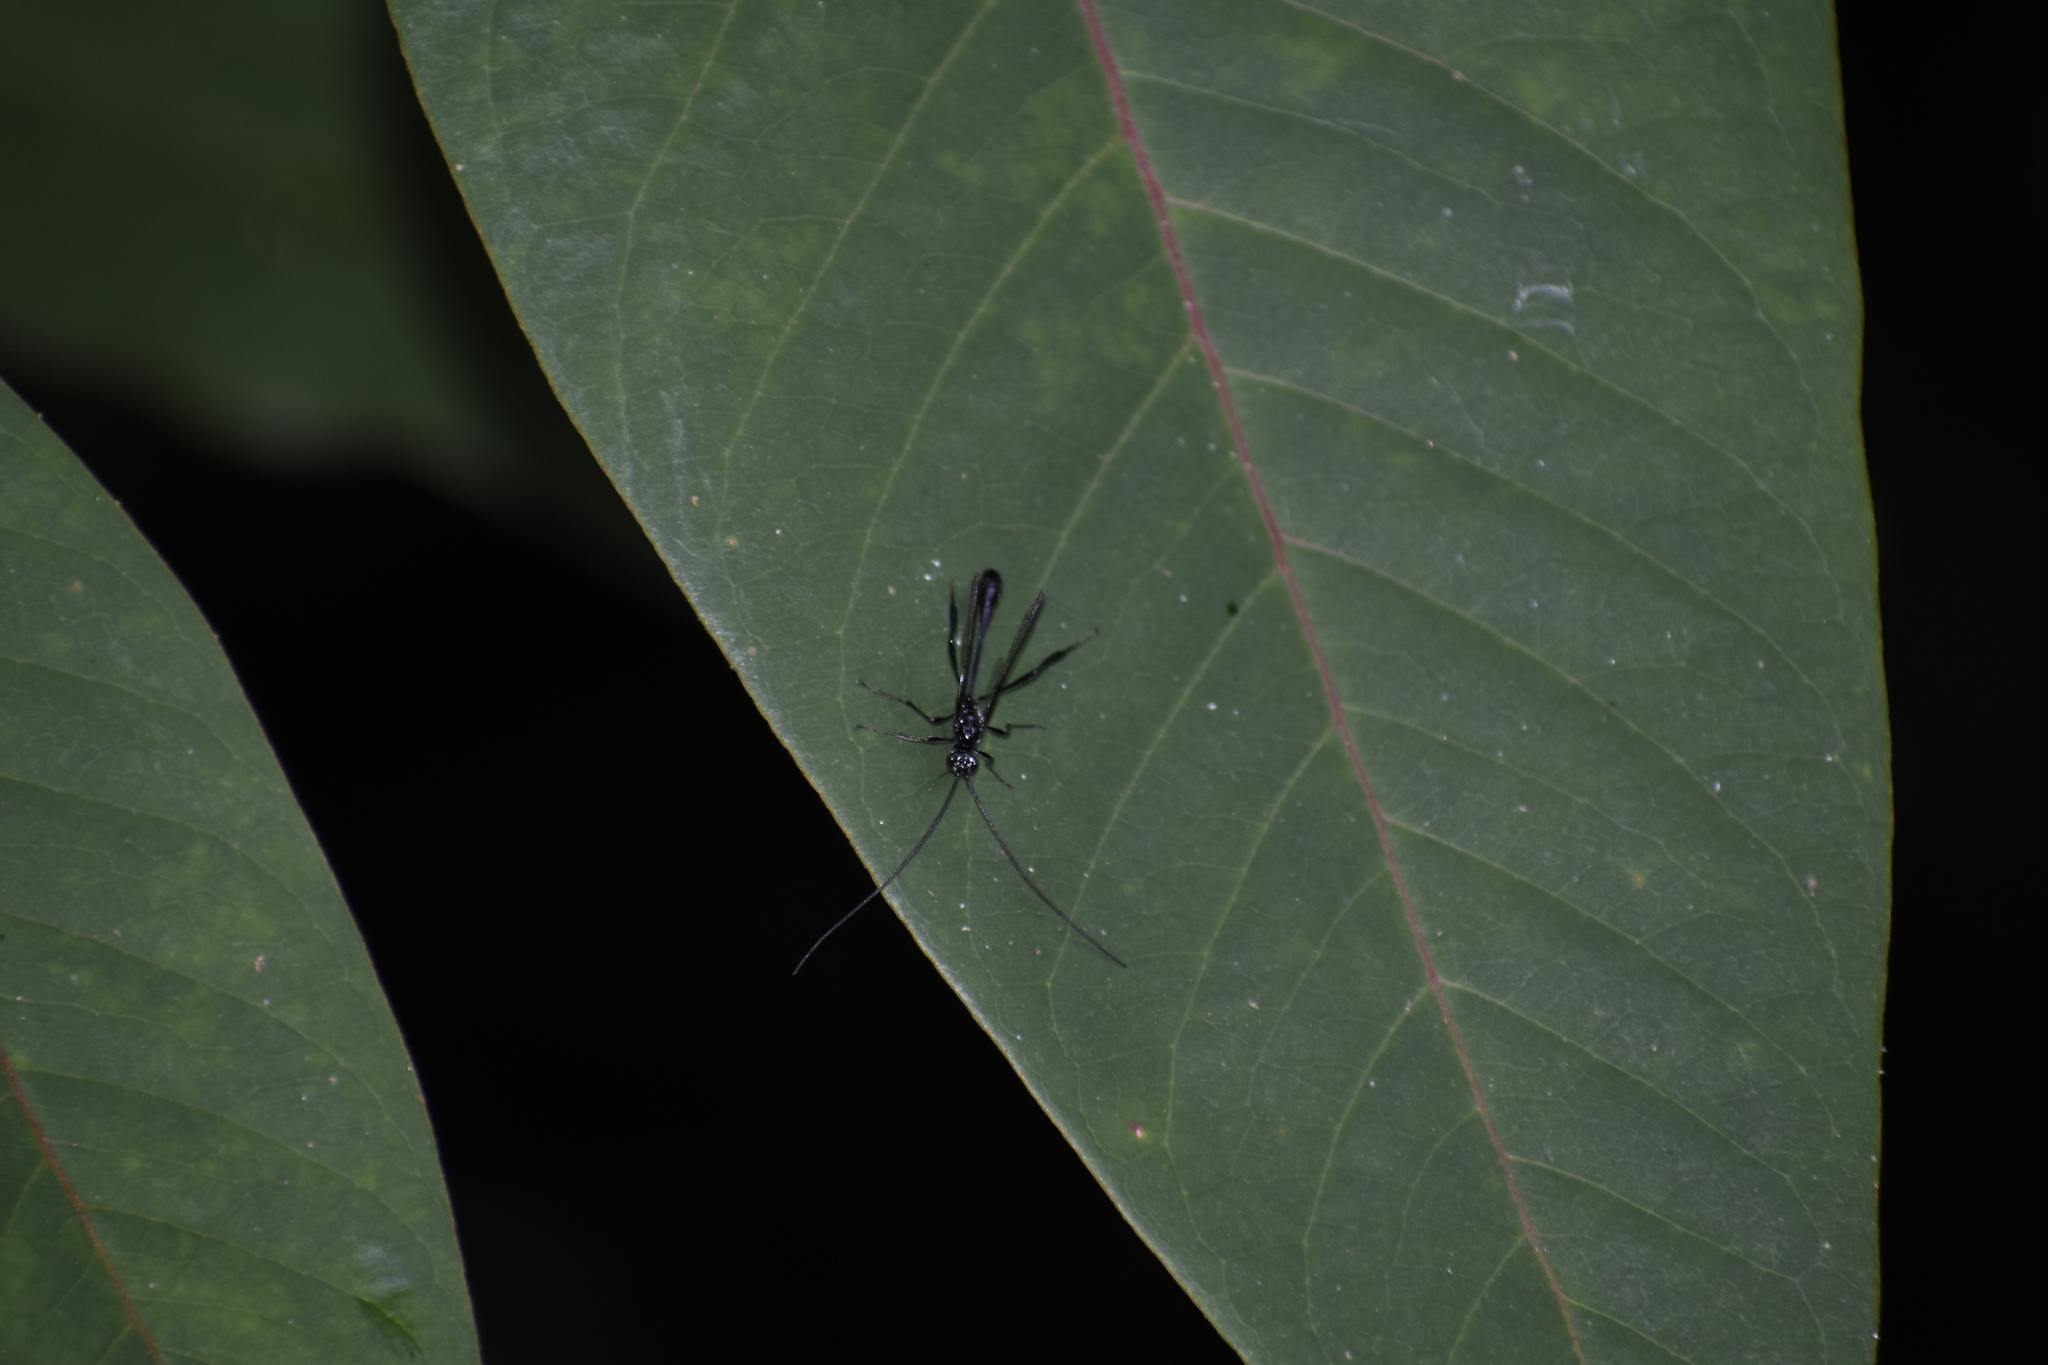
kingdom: Animalia
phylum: Arthropoda
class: Insecta
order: Hymenoptera
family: Pelecinidae
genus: Pelecinus
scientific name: Pelecinus polyturator
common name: American pelecinid wasp
